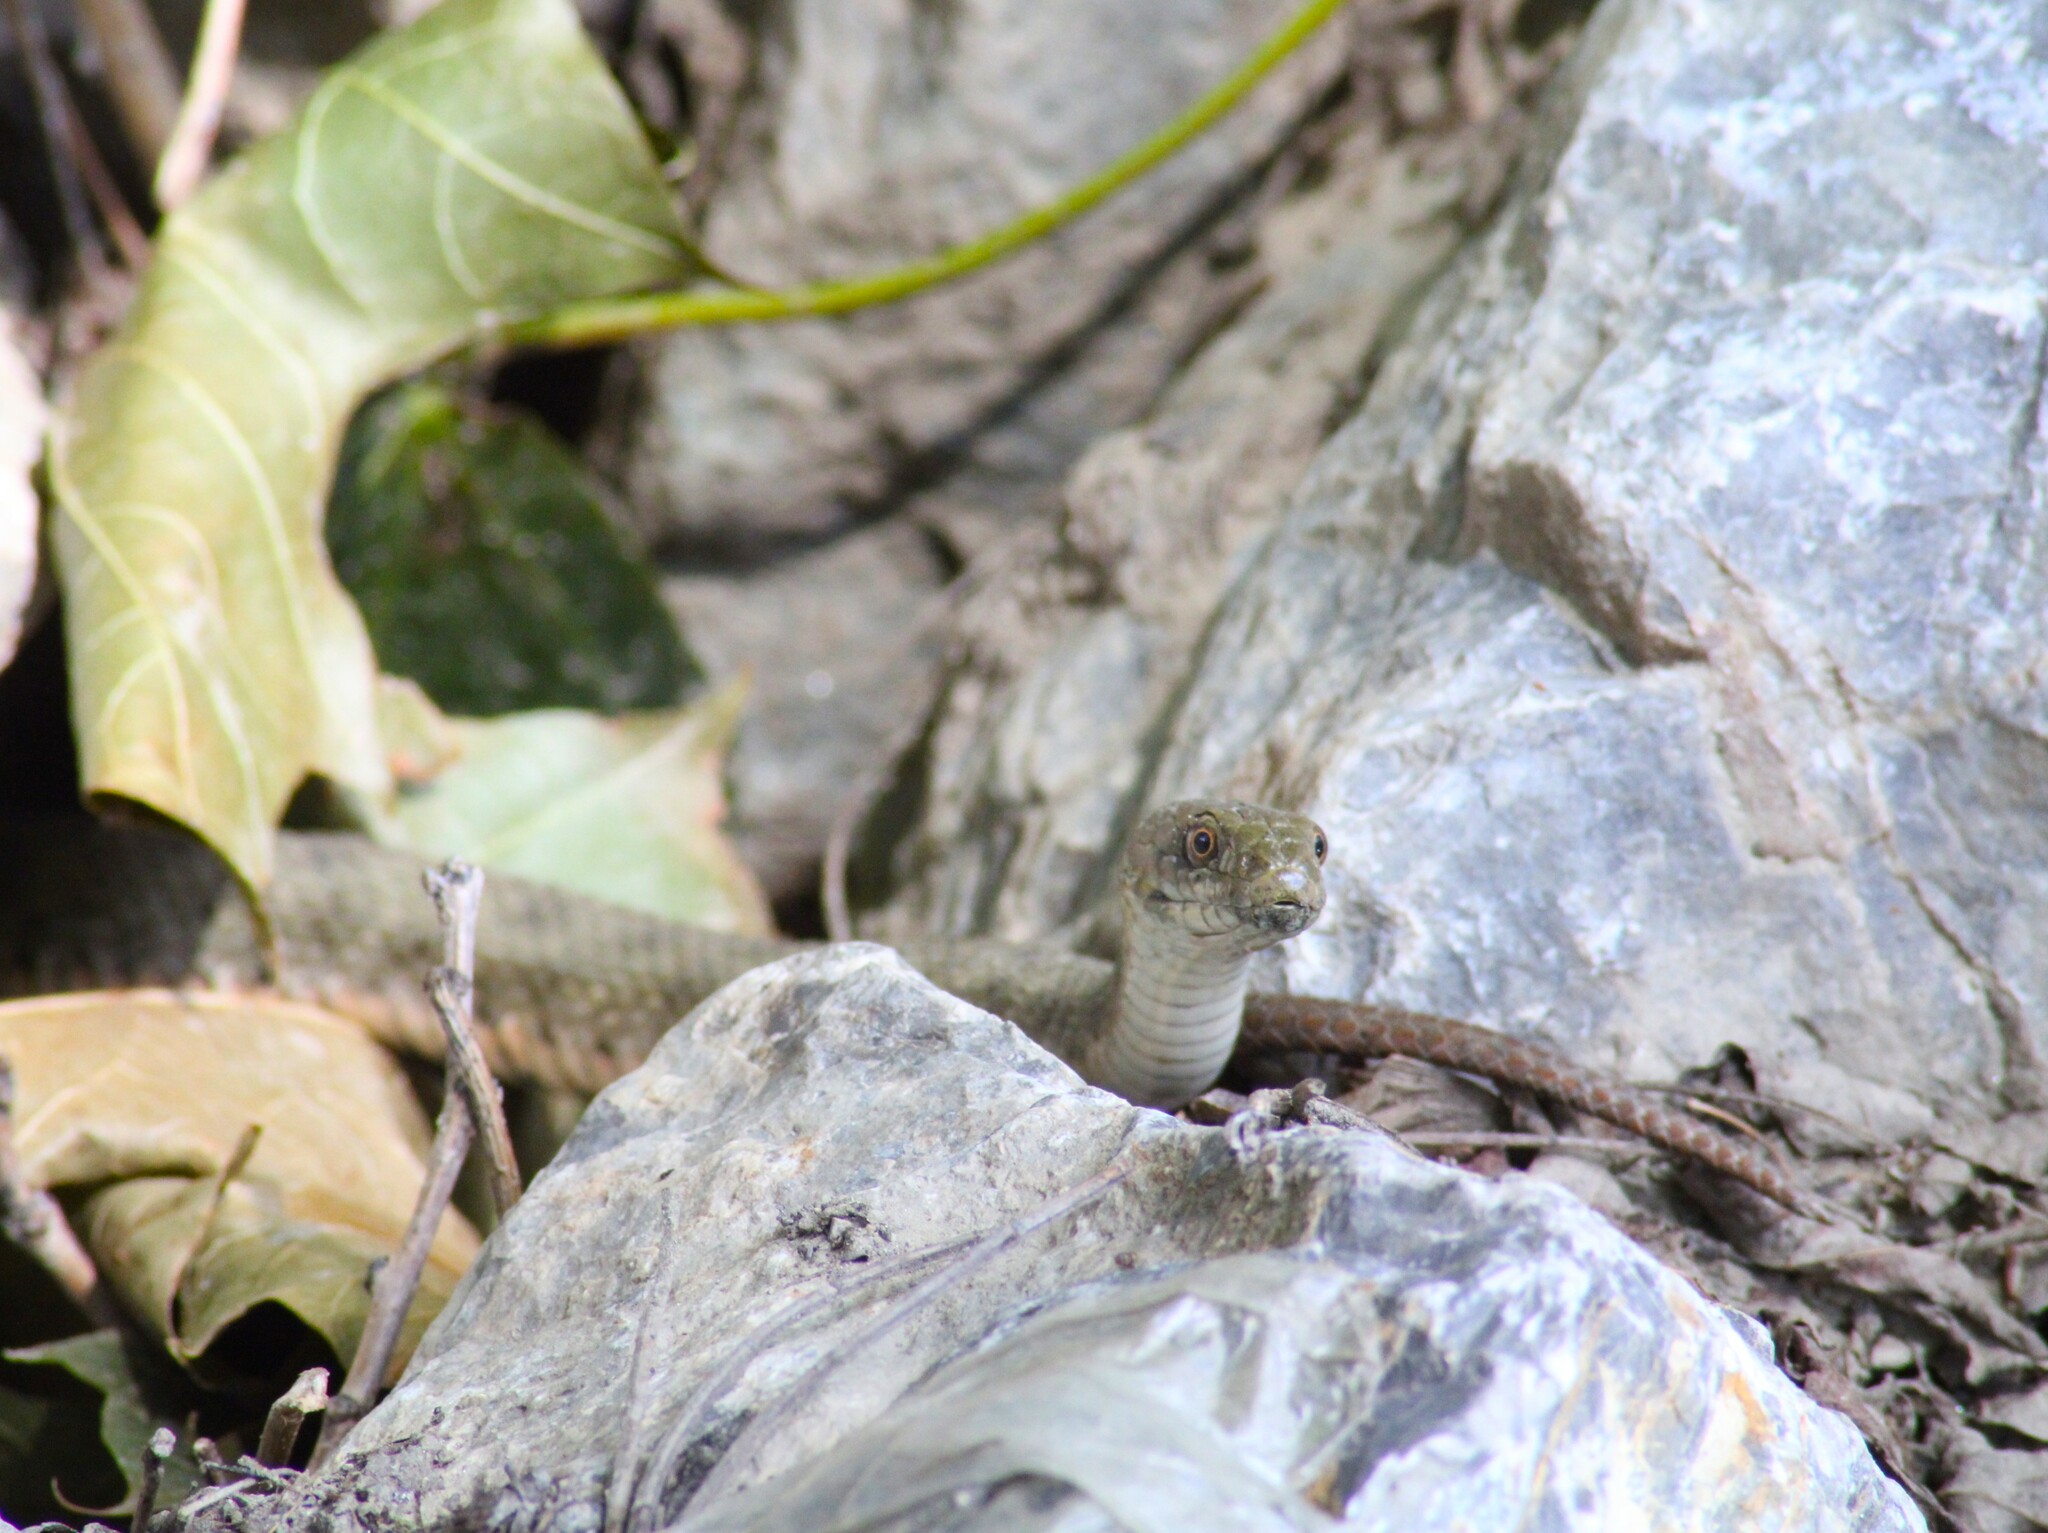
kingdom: Animalia
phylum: Chordata
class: Squamata
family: Colubridae
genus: Natrix
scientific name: Natrix tessellata
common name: Dice snake
